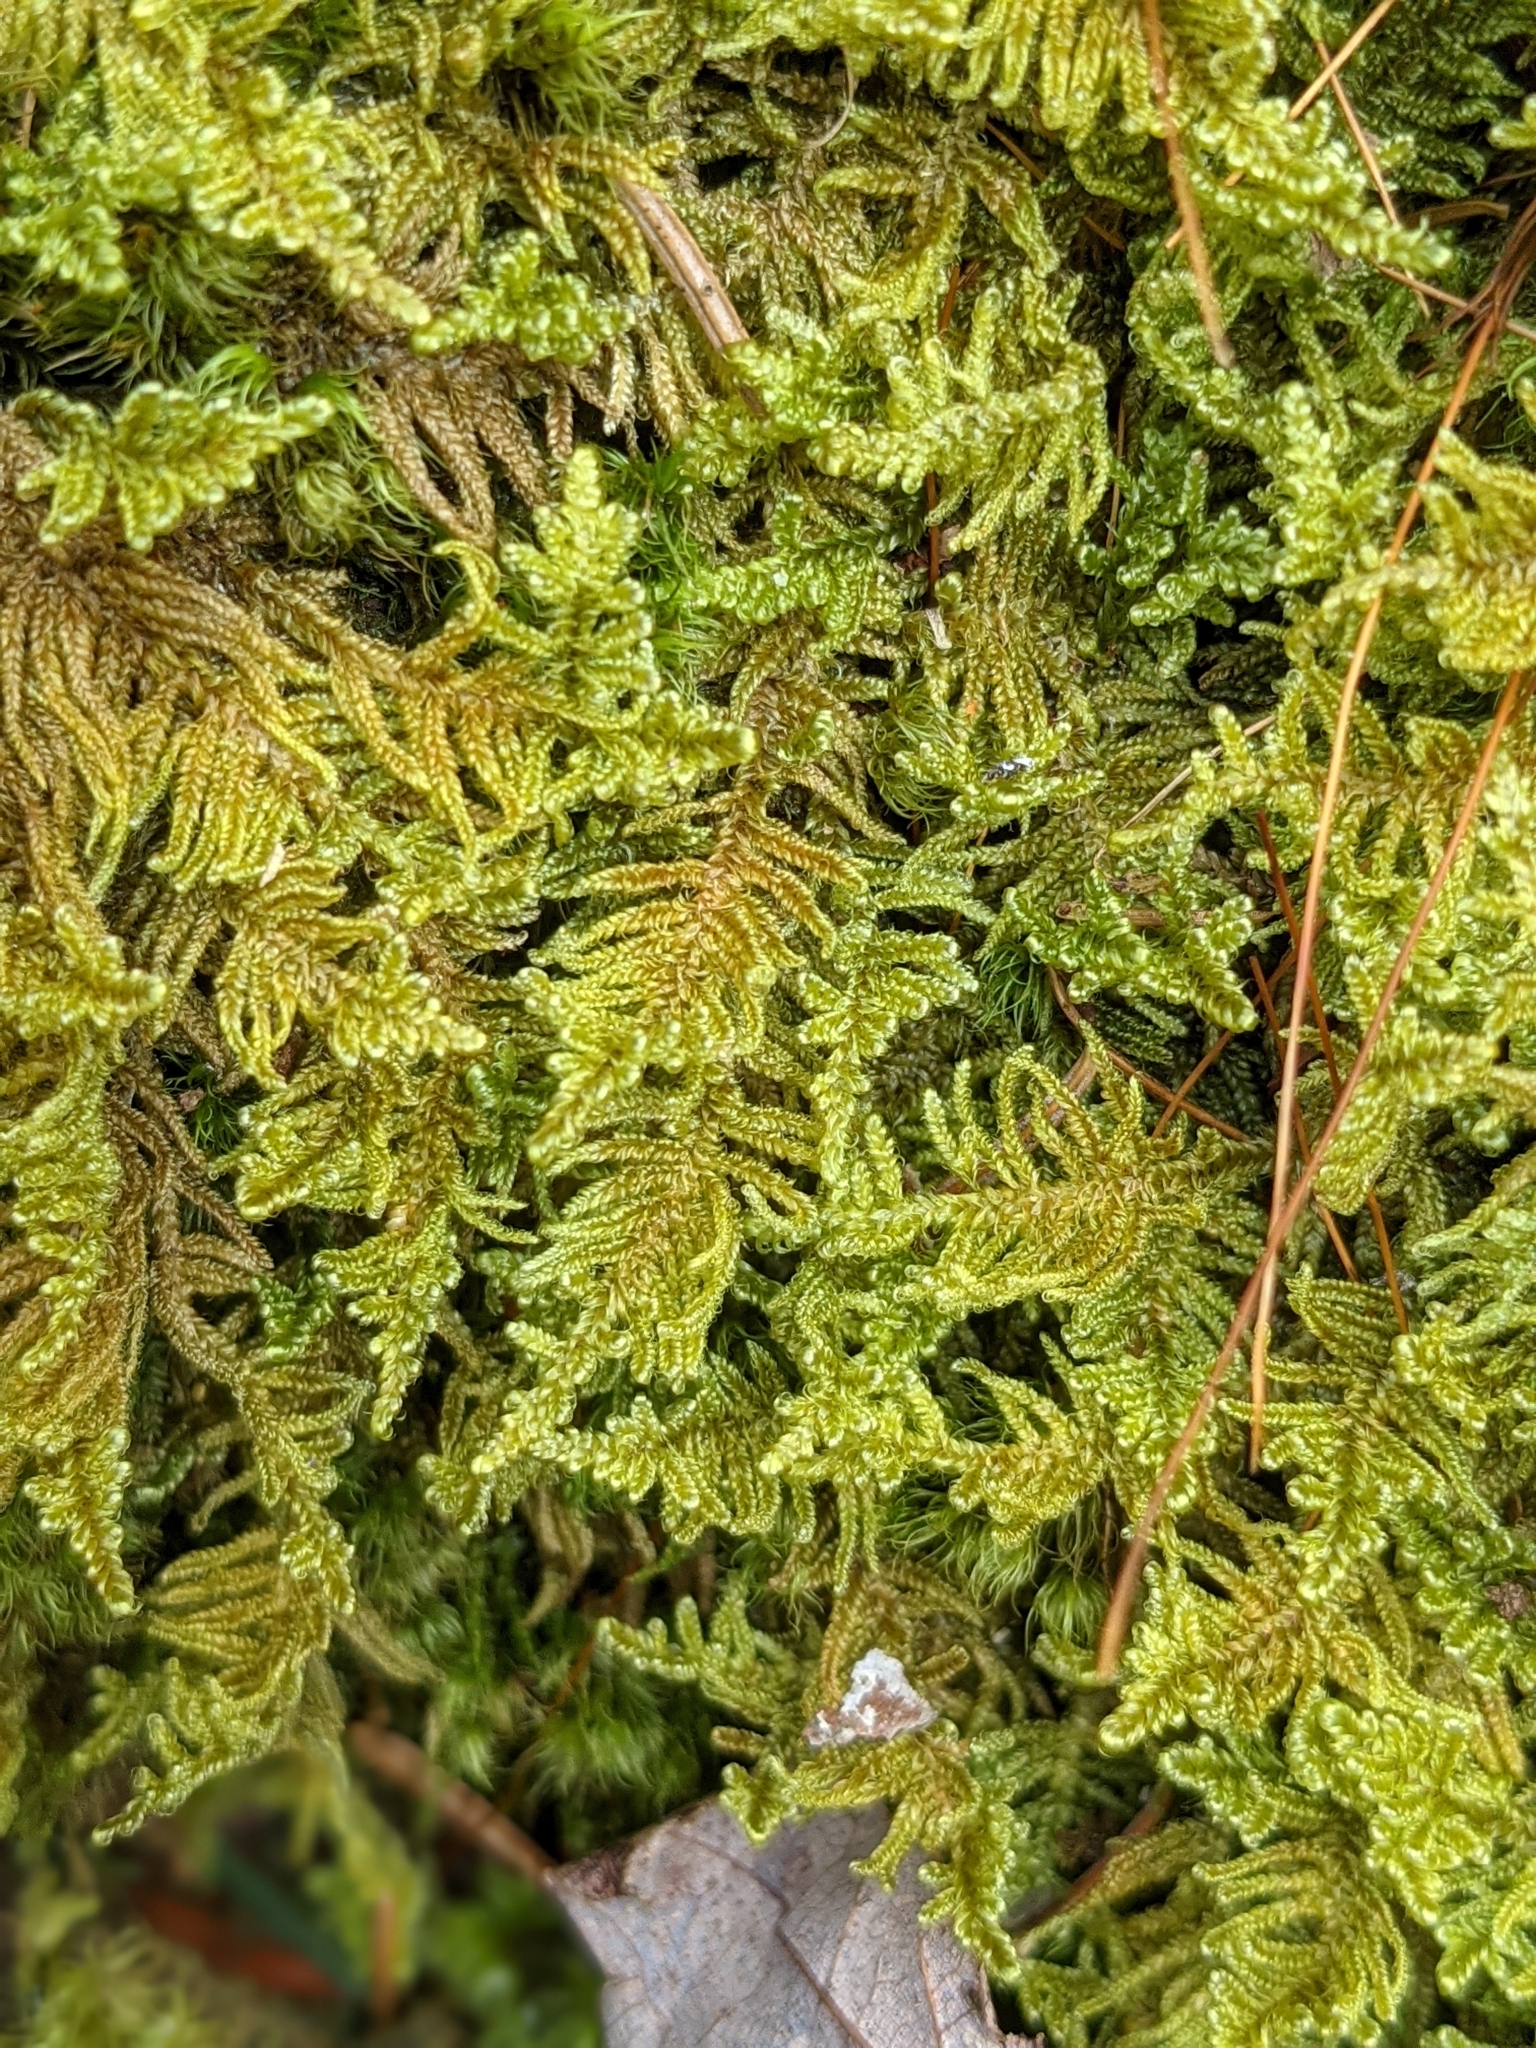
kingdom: Plantae
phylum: Bryophyta
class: Bryopsida
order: Hypnales
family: Callicladiaceae
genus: Callicladium
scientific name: Callicladium imponens
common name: Brocade moss
